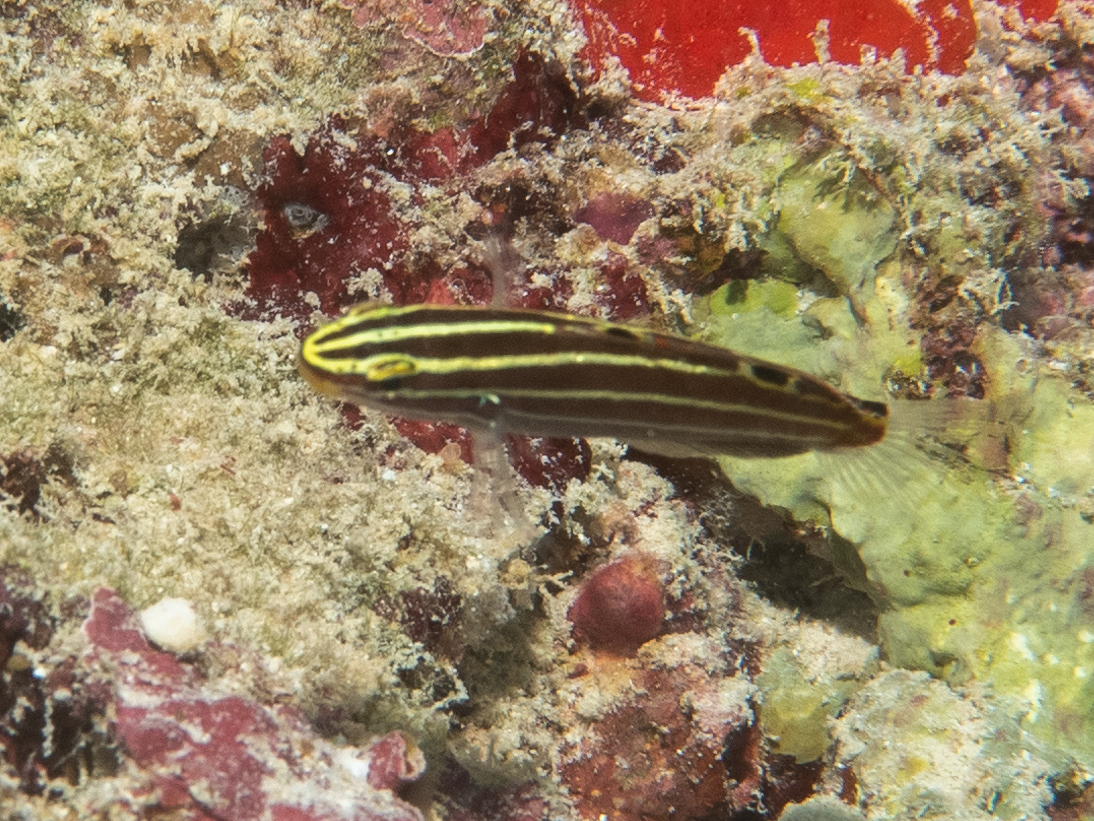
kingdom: Animalia
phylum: Chordata
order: Perciformes
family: Gobiidae
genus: Koumansetta
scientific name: Koumansetta hectori
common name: Hector's goby
